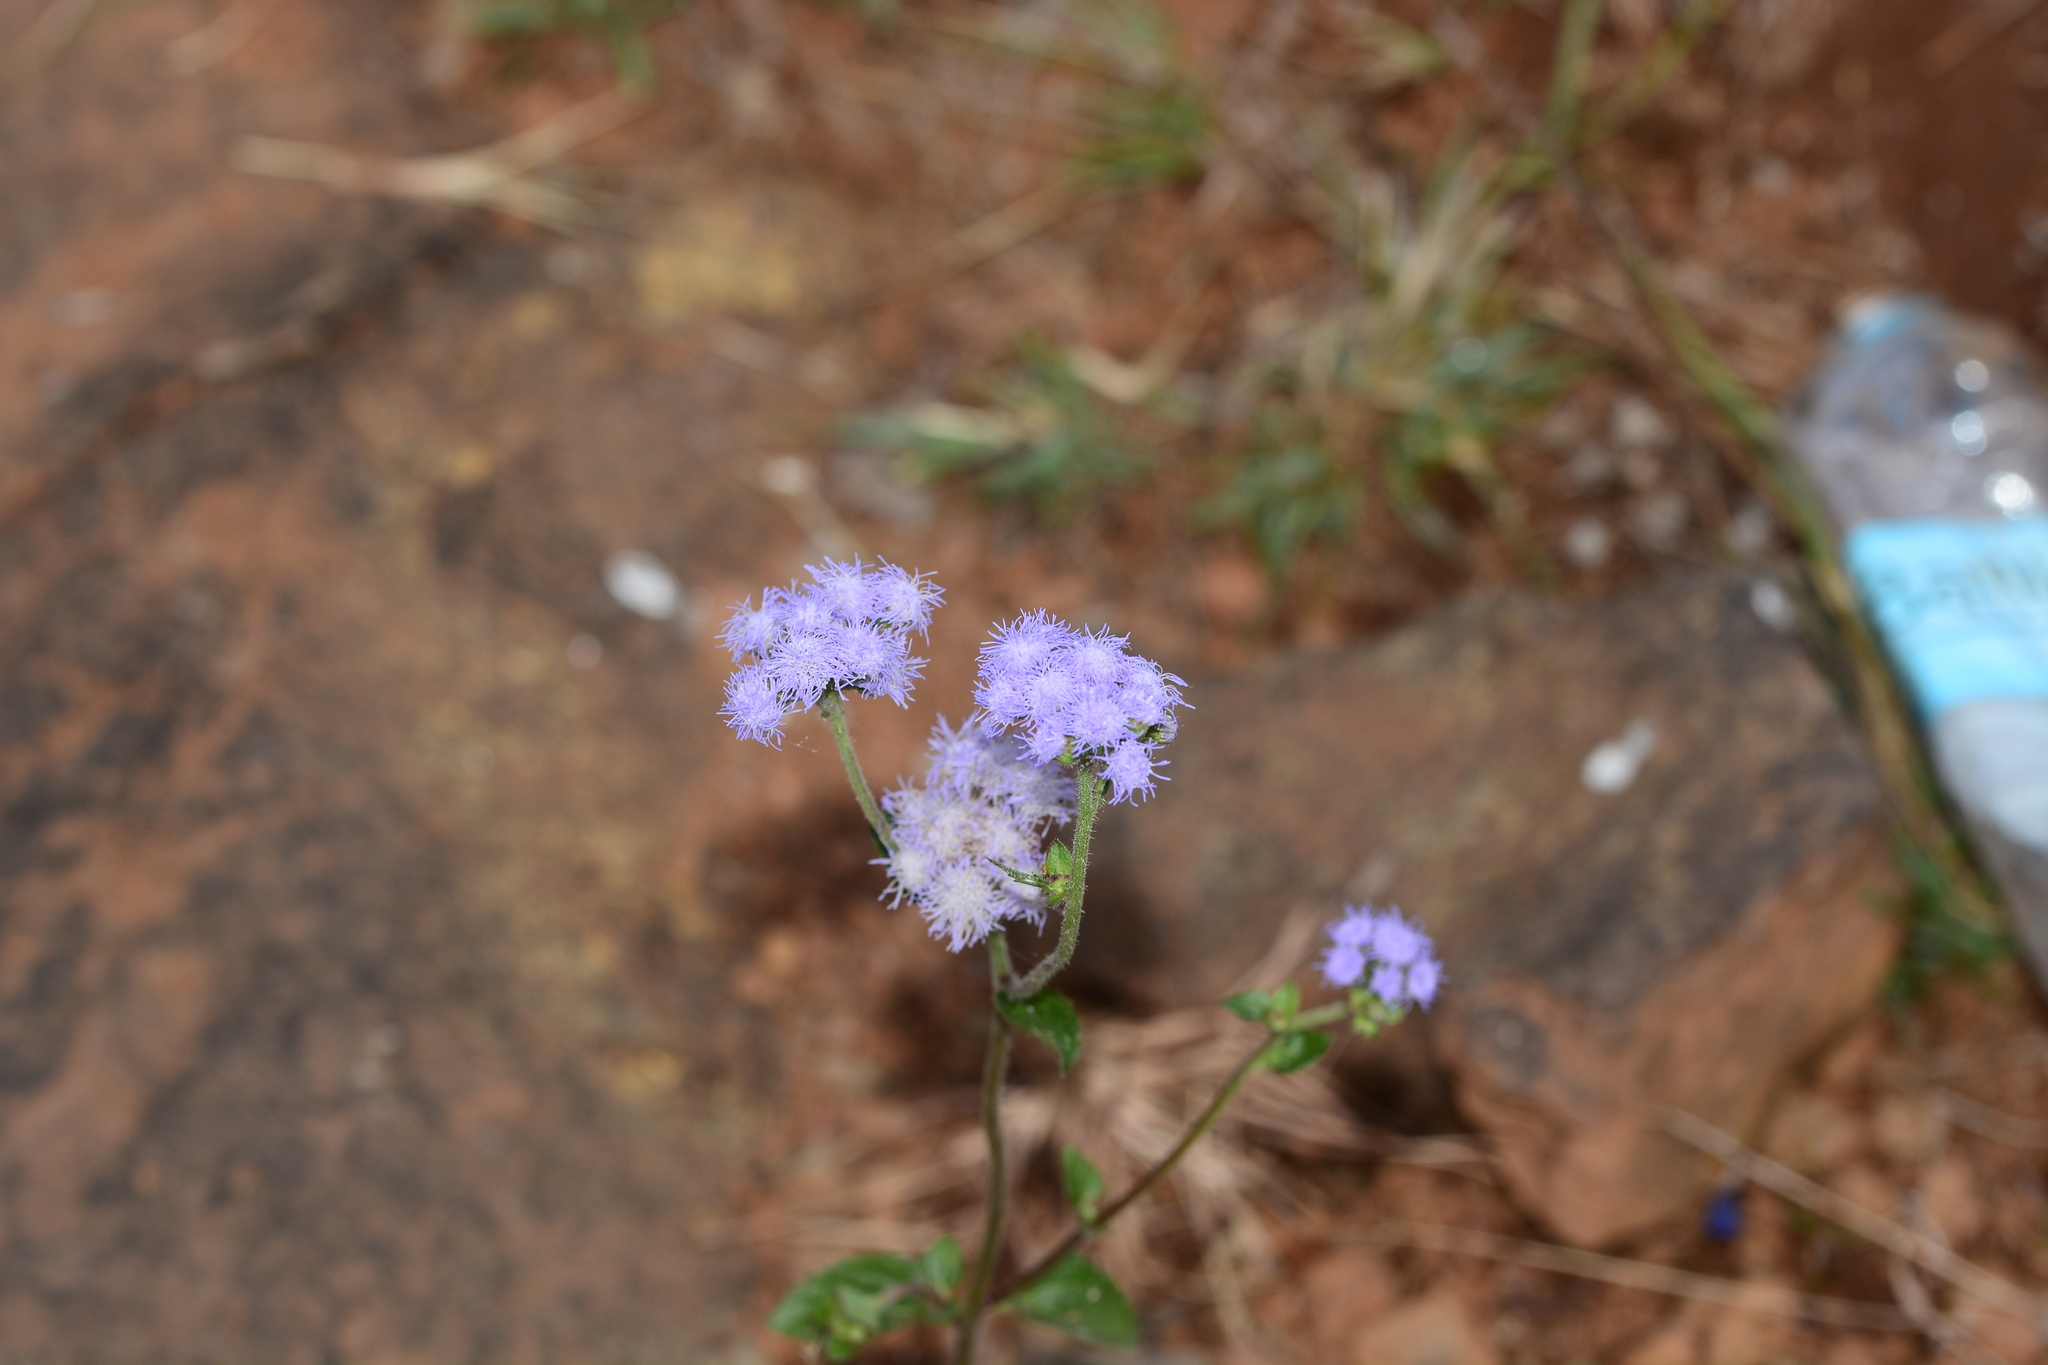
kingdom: Plantae
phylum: Tracheophyta
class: Magnoliopsida
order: Asterales
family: Asteraceae
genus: Ageratum
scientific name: Ageratum houstonianum
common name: Bluemink
